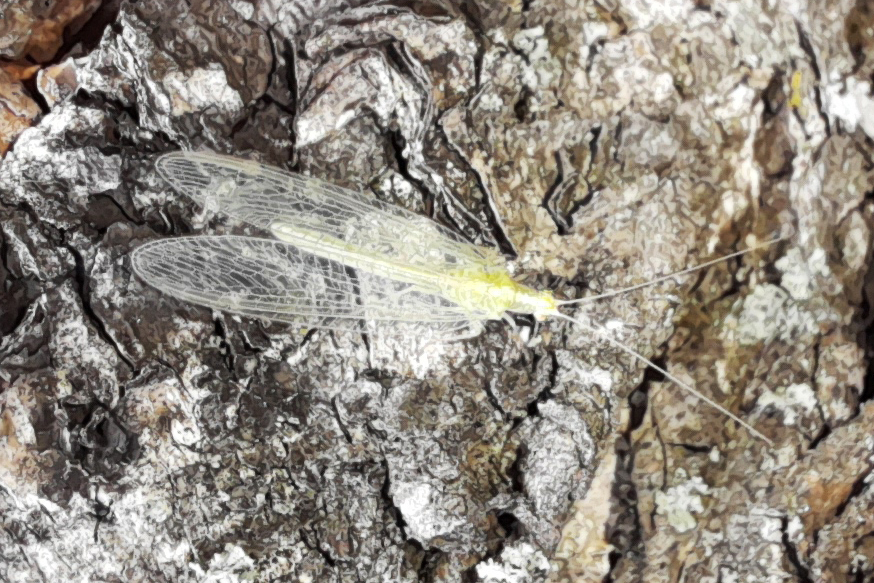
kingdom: Animalia
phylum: Arthropoda
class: Insecta
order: Neuroptera
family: Chrysopidae
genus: Chrysoperla
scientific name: Chrysoperla
